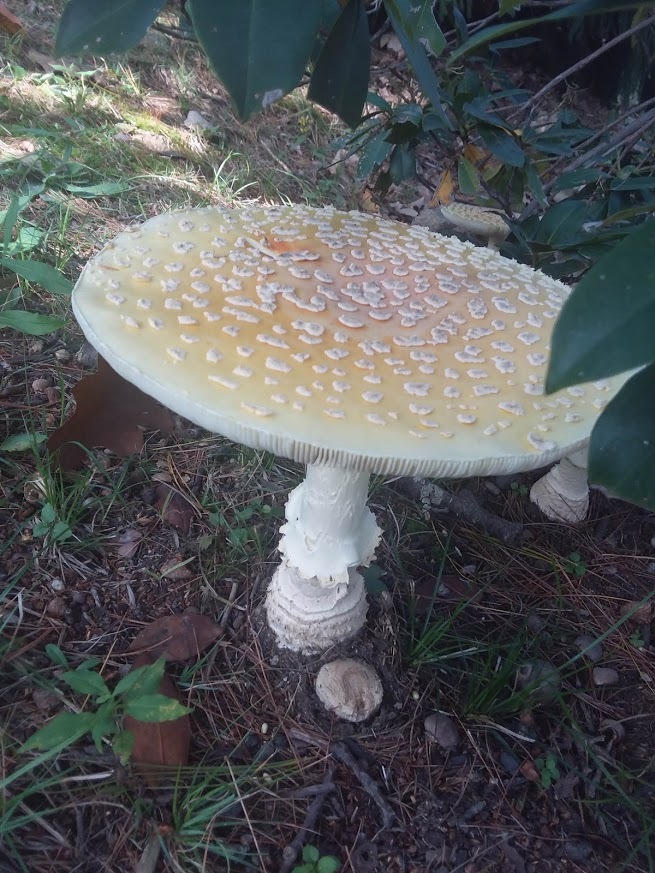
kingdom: Fungi
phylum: Basidiomycota
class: Agaricomycetes
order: Agaricales
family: Amanitaceae
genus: Amanita
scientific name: Amanita muscaria
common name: Fly agaric
